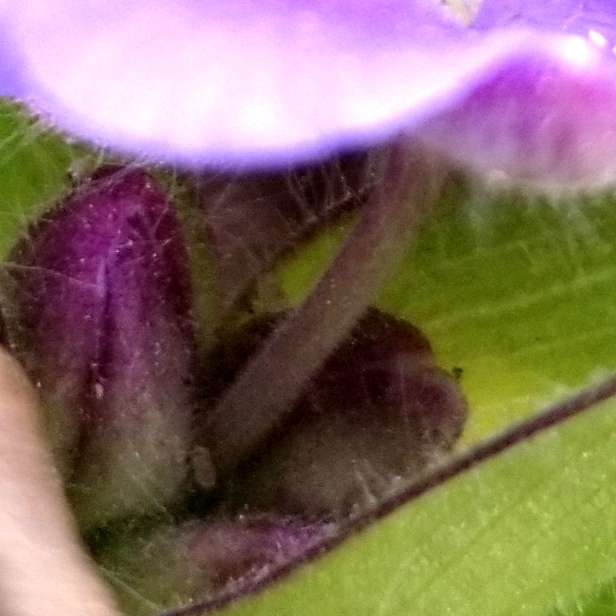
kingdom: Plantae
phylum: Tracheophyta
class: Liliopsida
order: Commelinales
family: Commelinaceae
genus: Tradescantia
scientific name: Tradescantia hirsuticaulis
